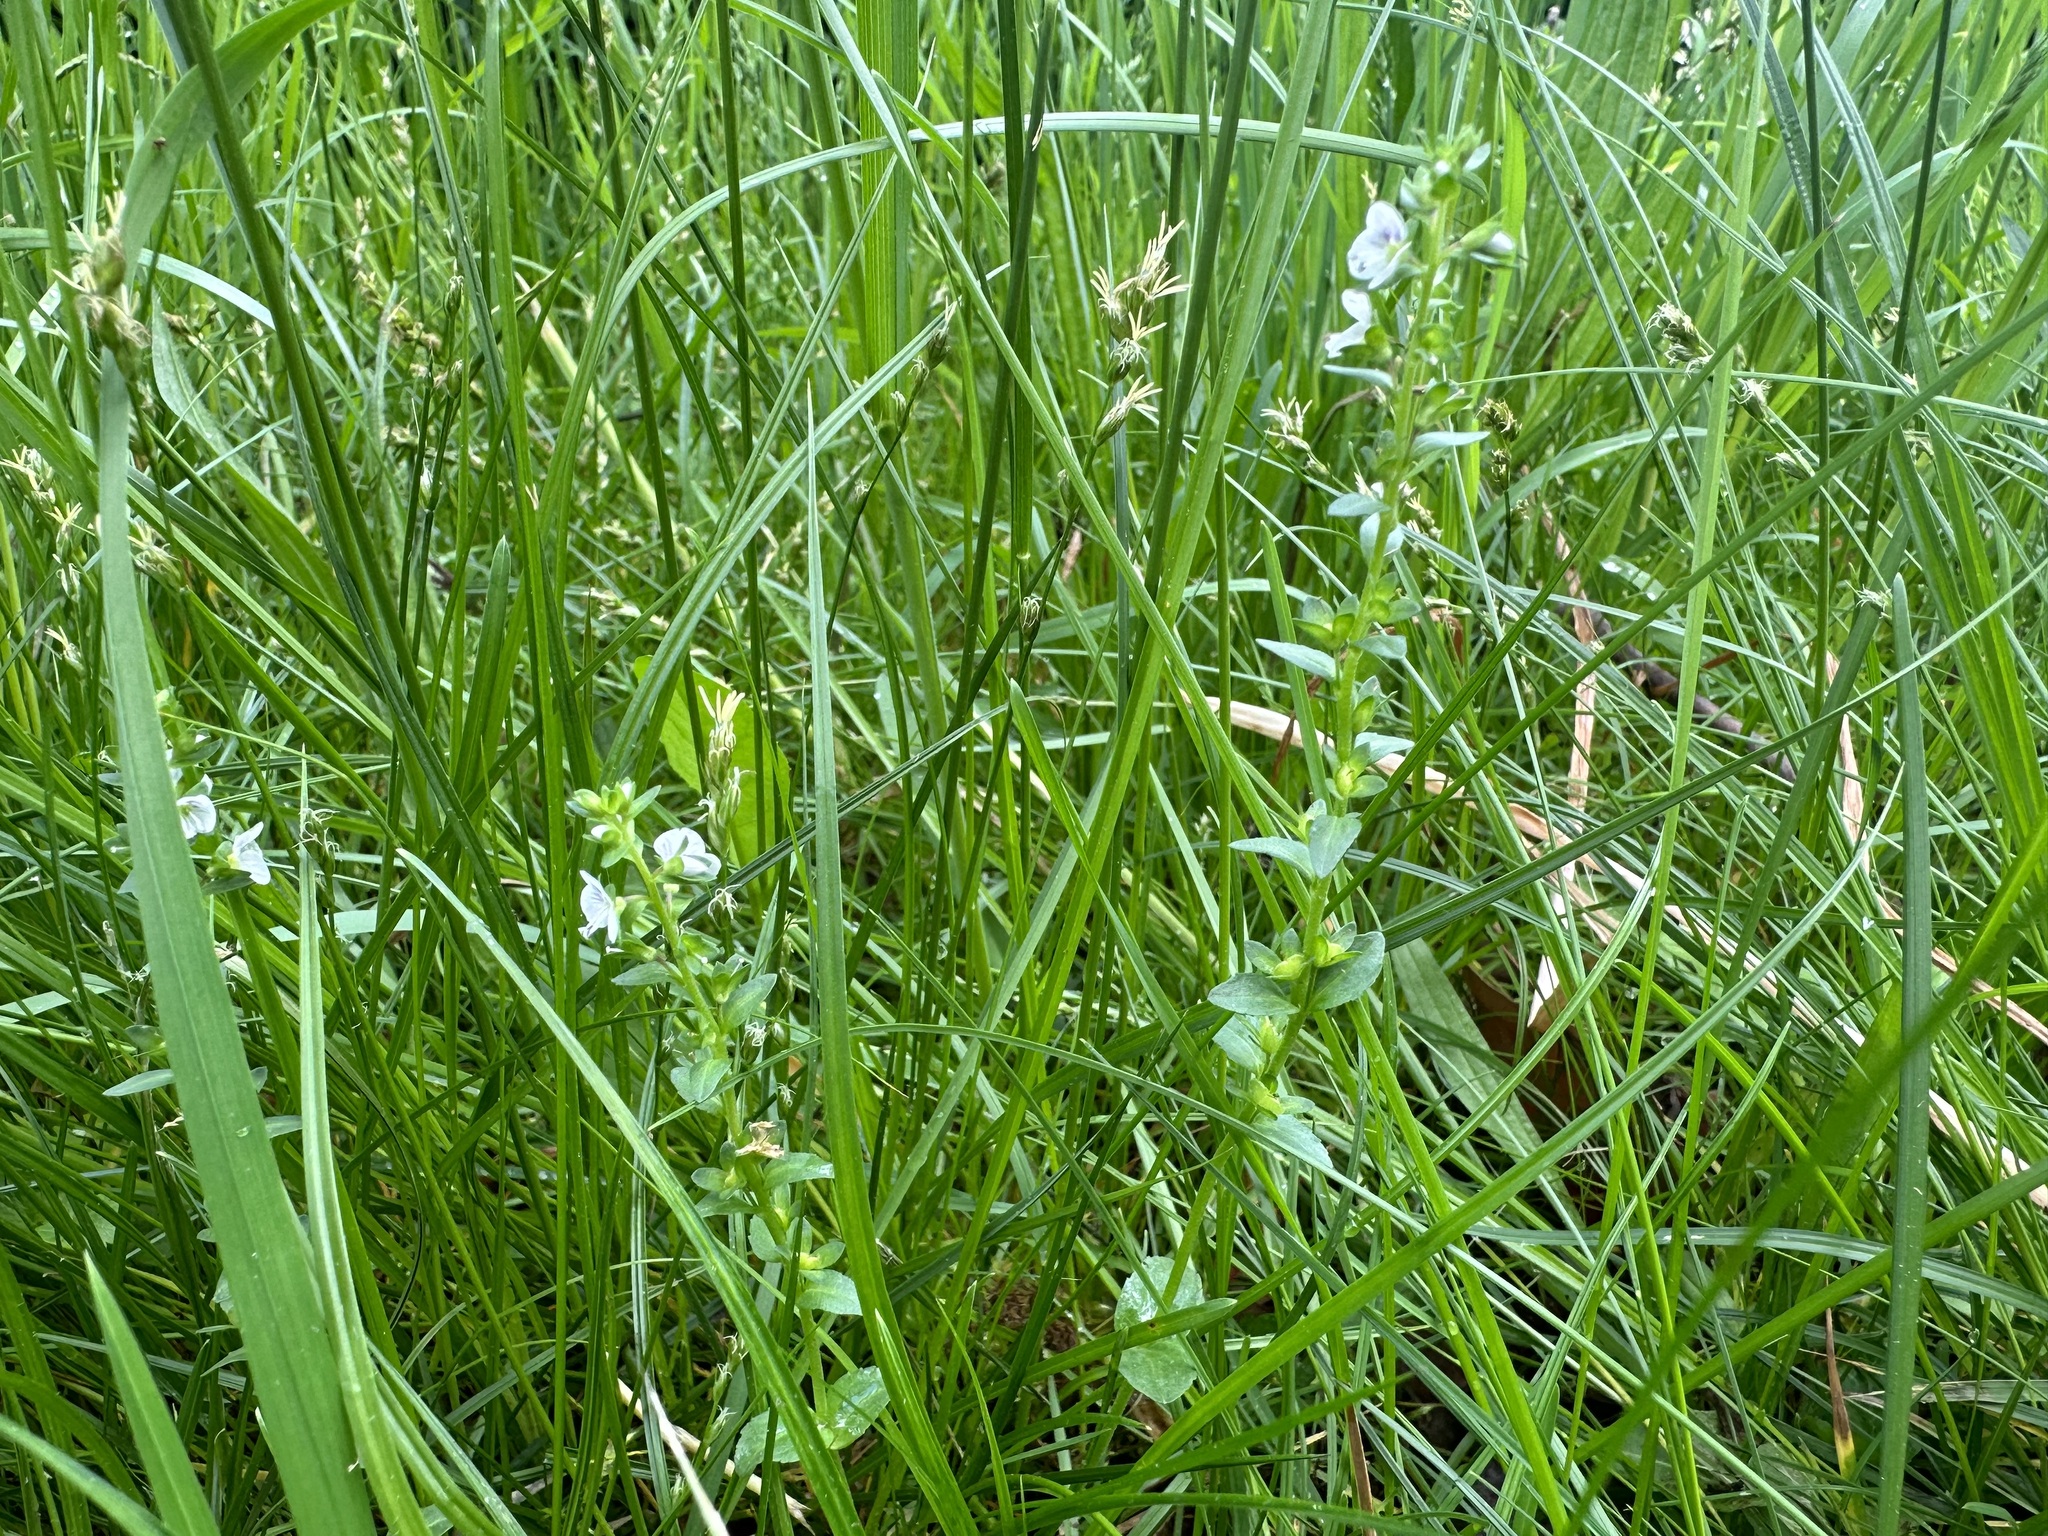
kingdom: Plantae
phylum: Tracheophyta
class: Magnoliopsida
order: Lamiales
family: Plantaginaceae
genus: Veronica
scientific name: Veronica serpyllifolia
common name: Thyme-leaved speedwell
